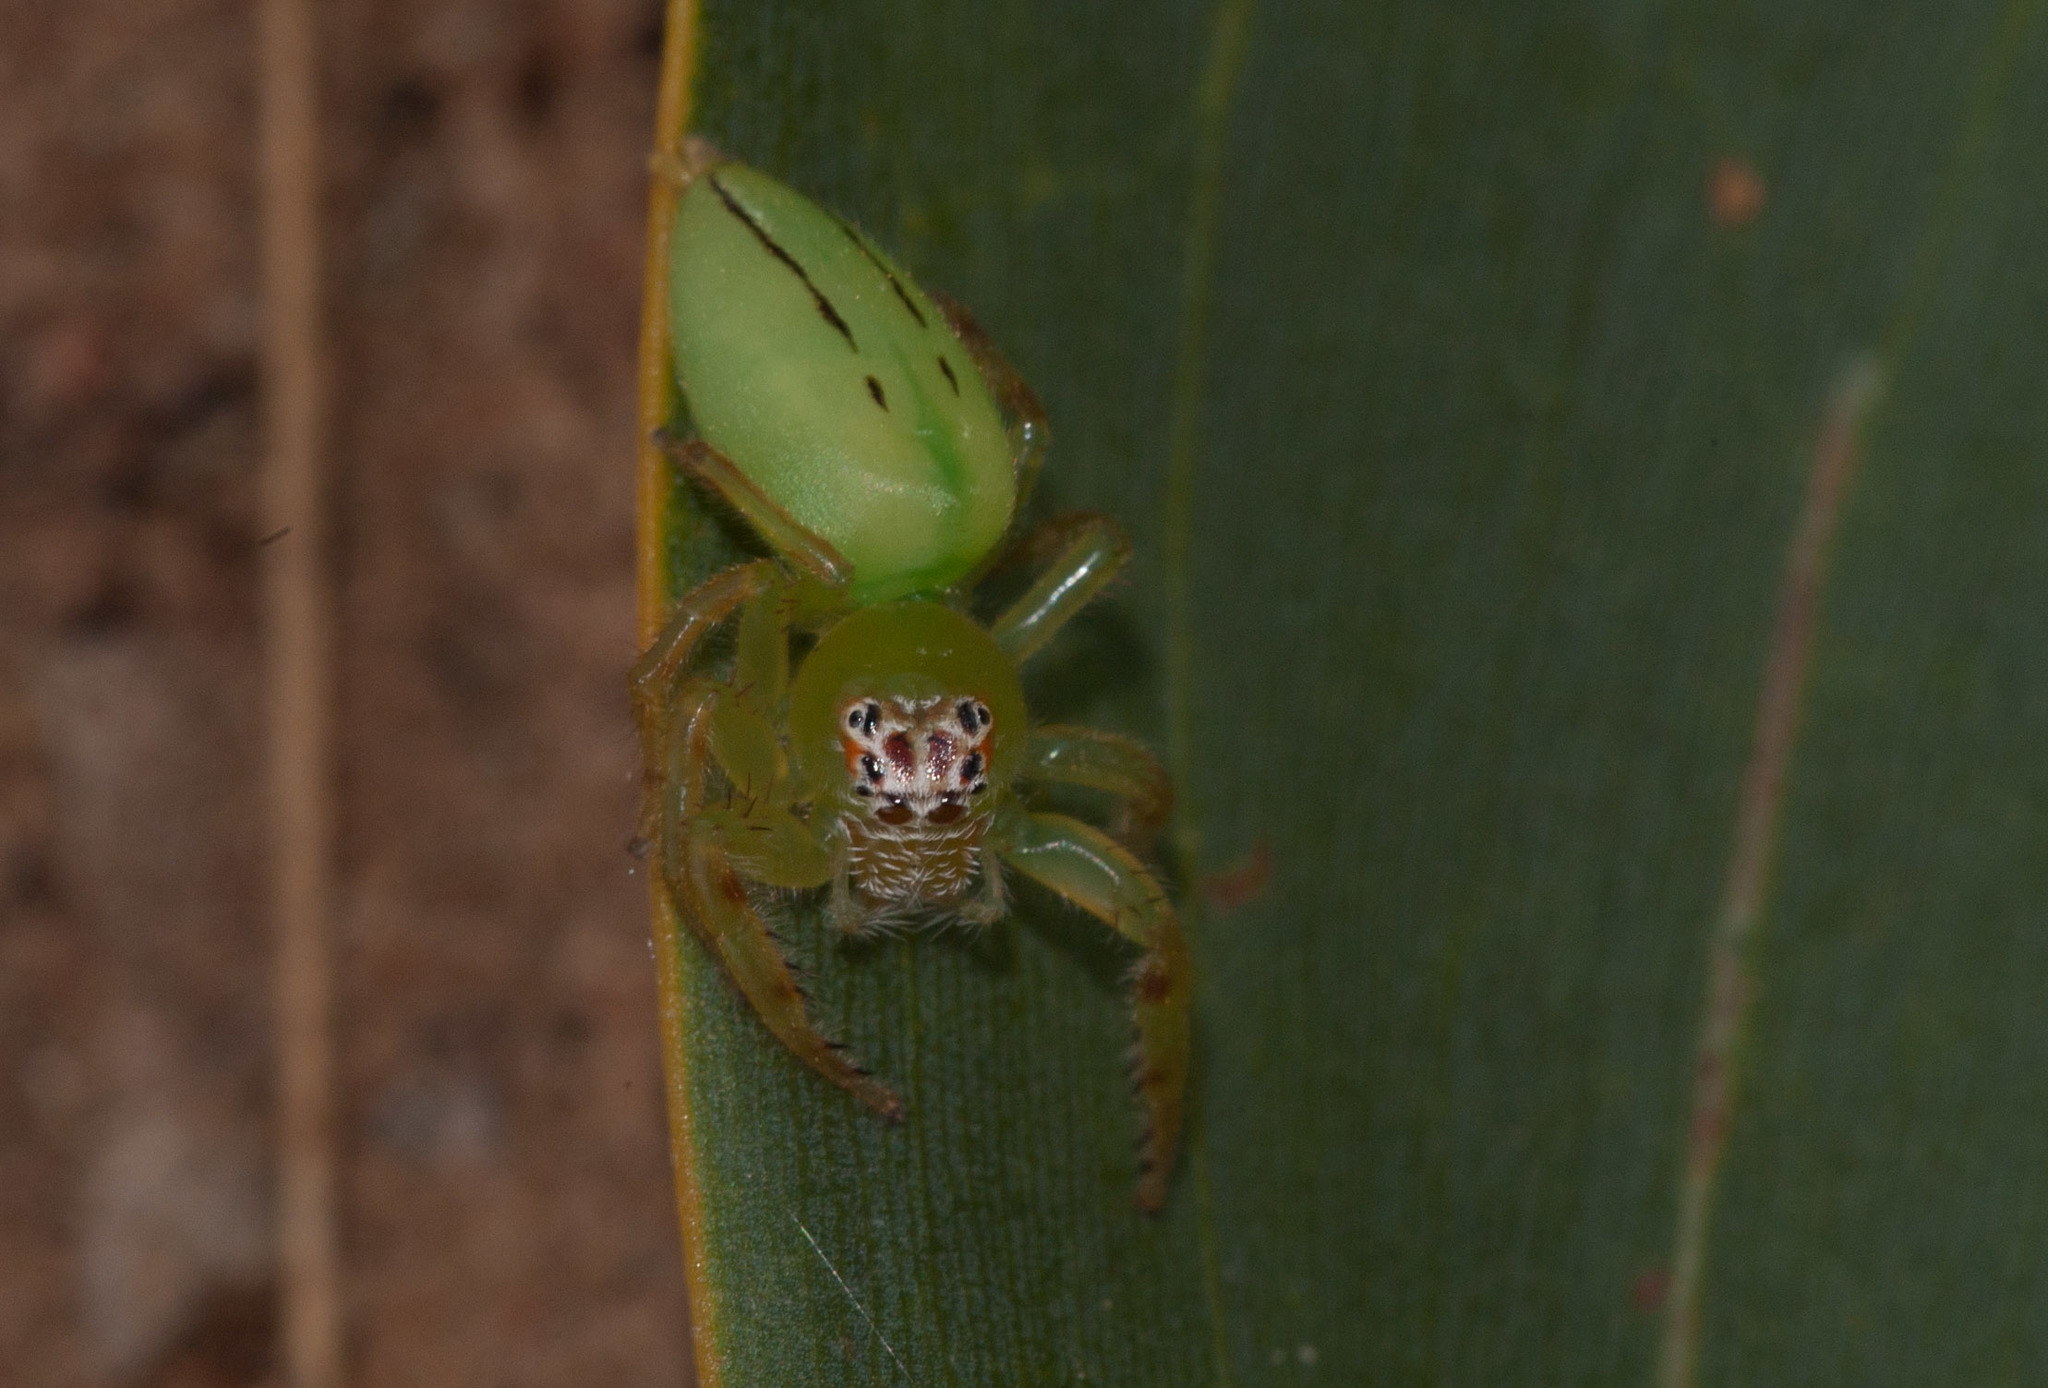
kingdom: Animalia
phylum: Arthropoda
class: Arachnida
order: Araneae
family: Salticidae
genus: Mopsus
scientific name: Mopsus mormon
